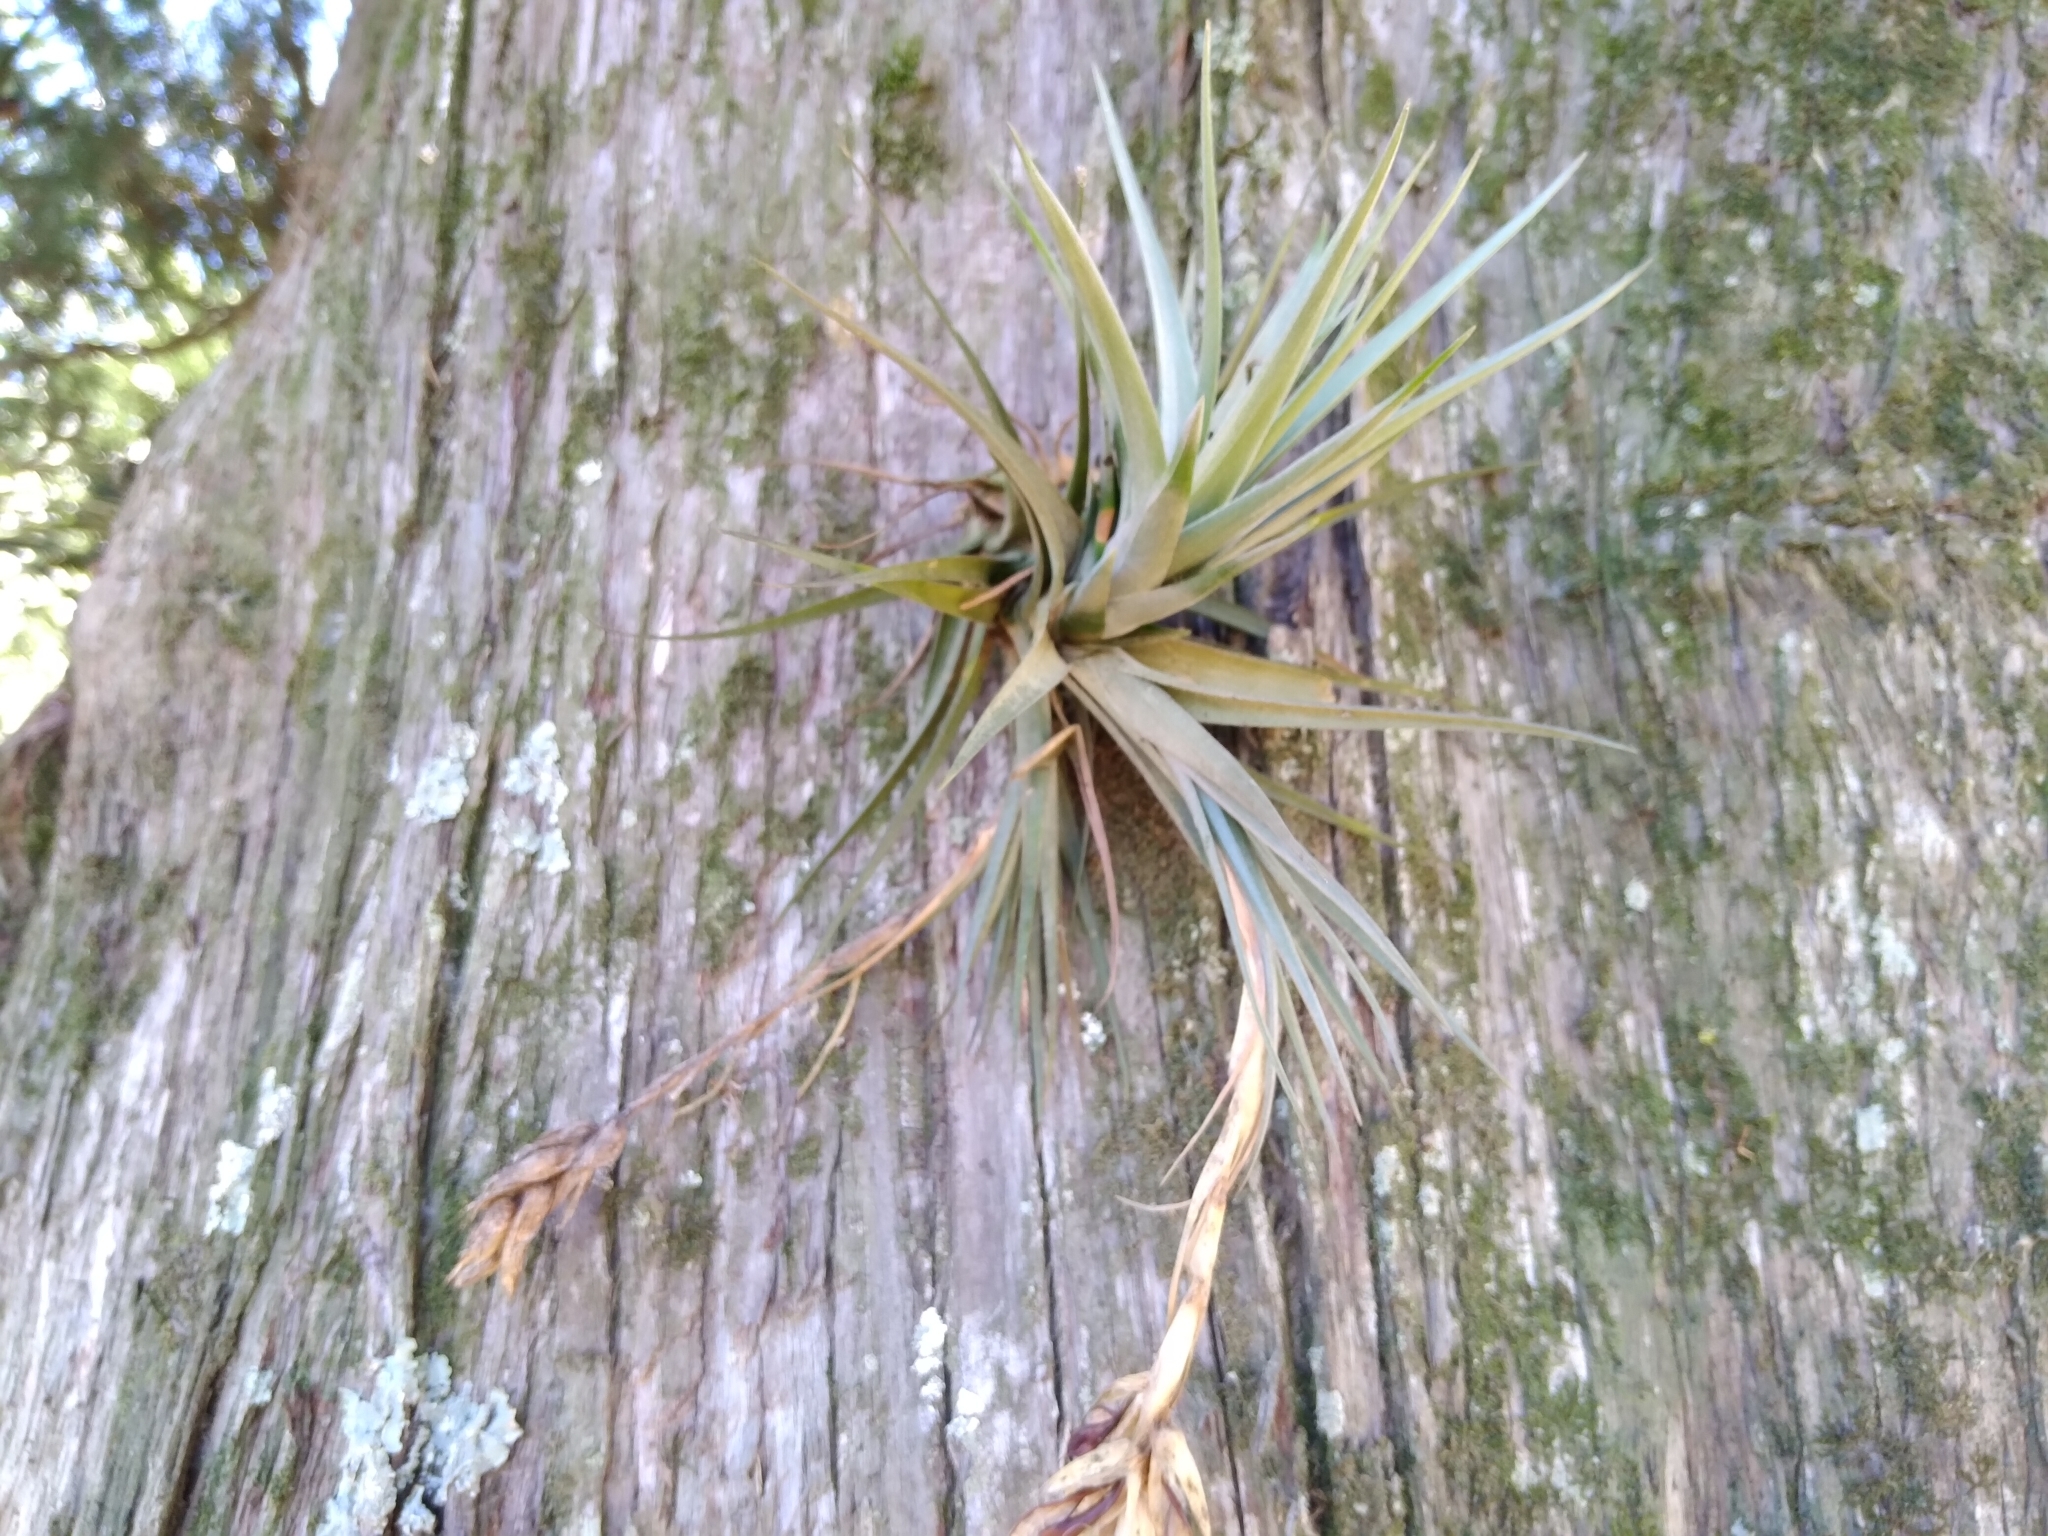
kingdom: Plantae
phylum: Tracheophyta
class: Liliopsida
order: Poales
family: Bromeliaceae
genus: Tillandsia
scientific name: Tillandsia aeranthos
